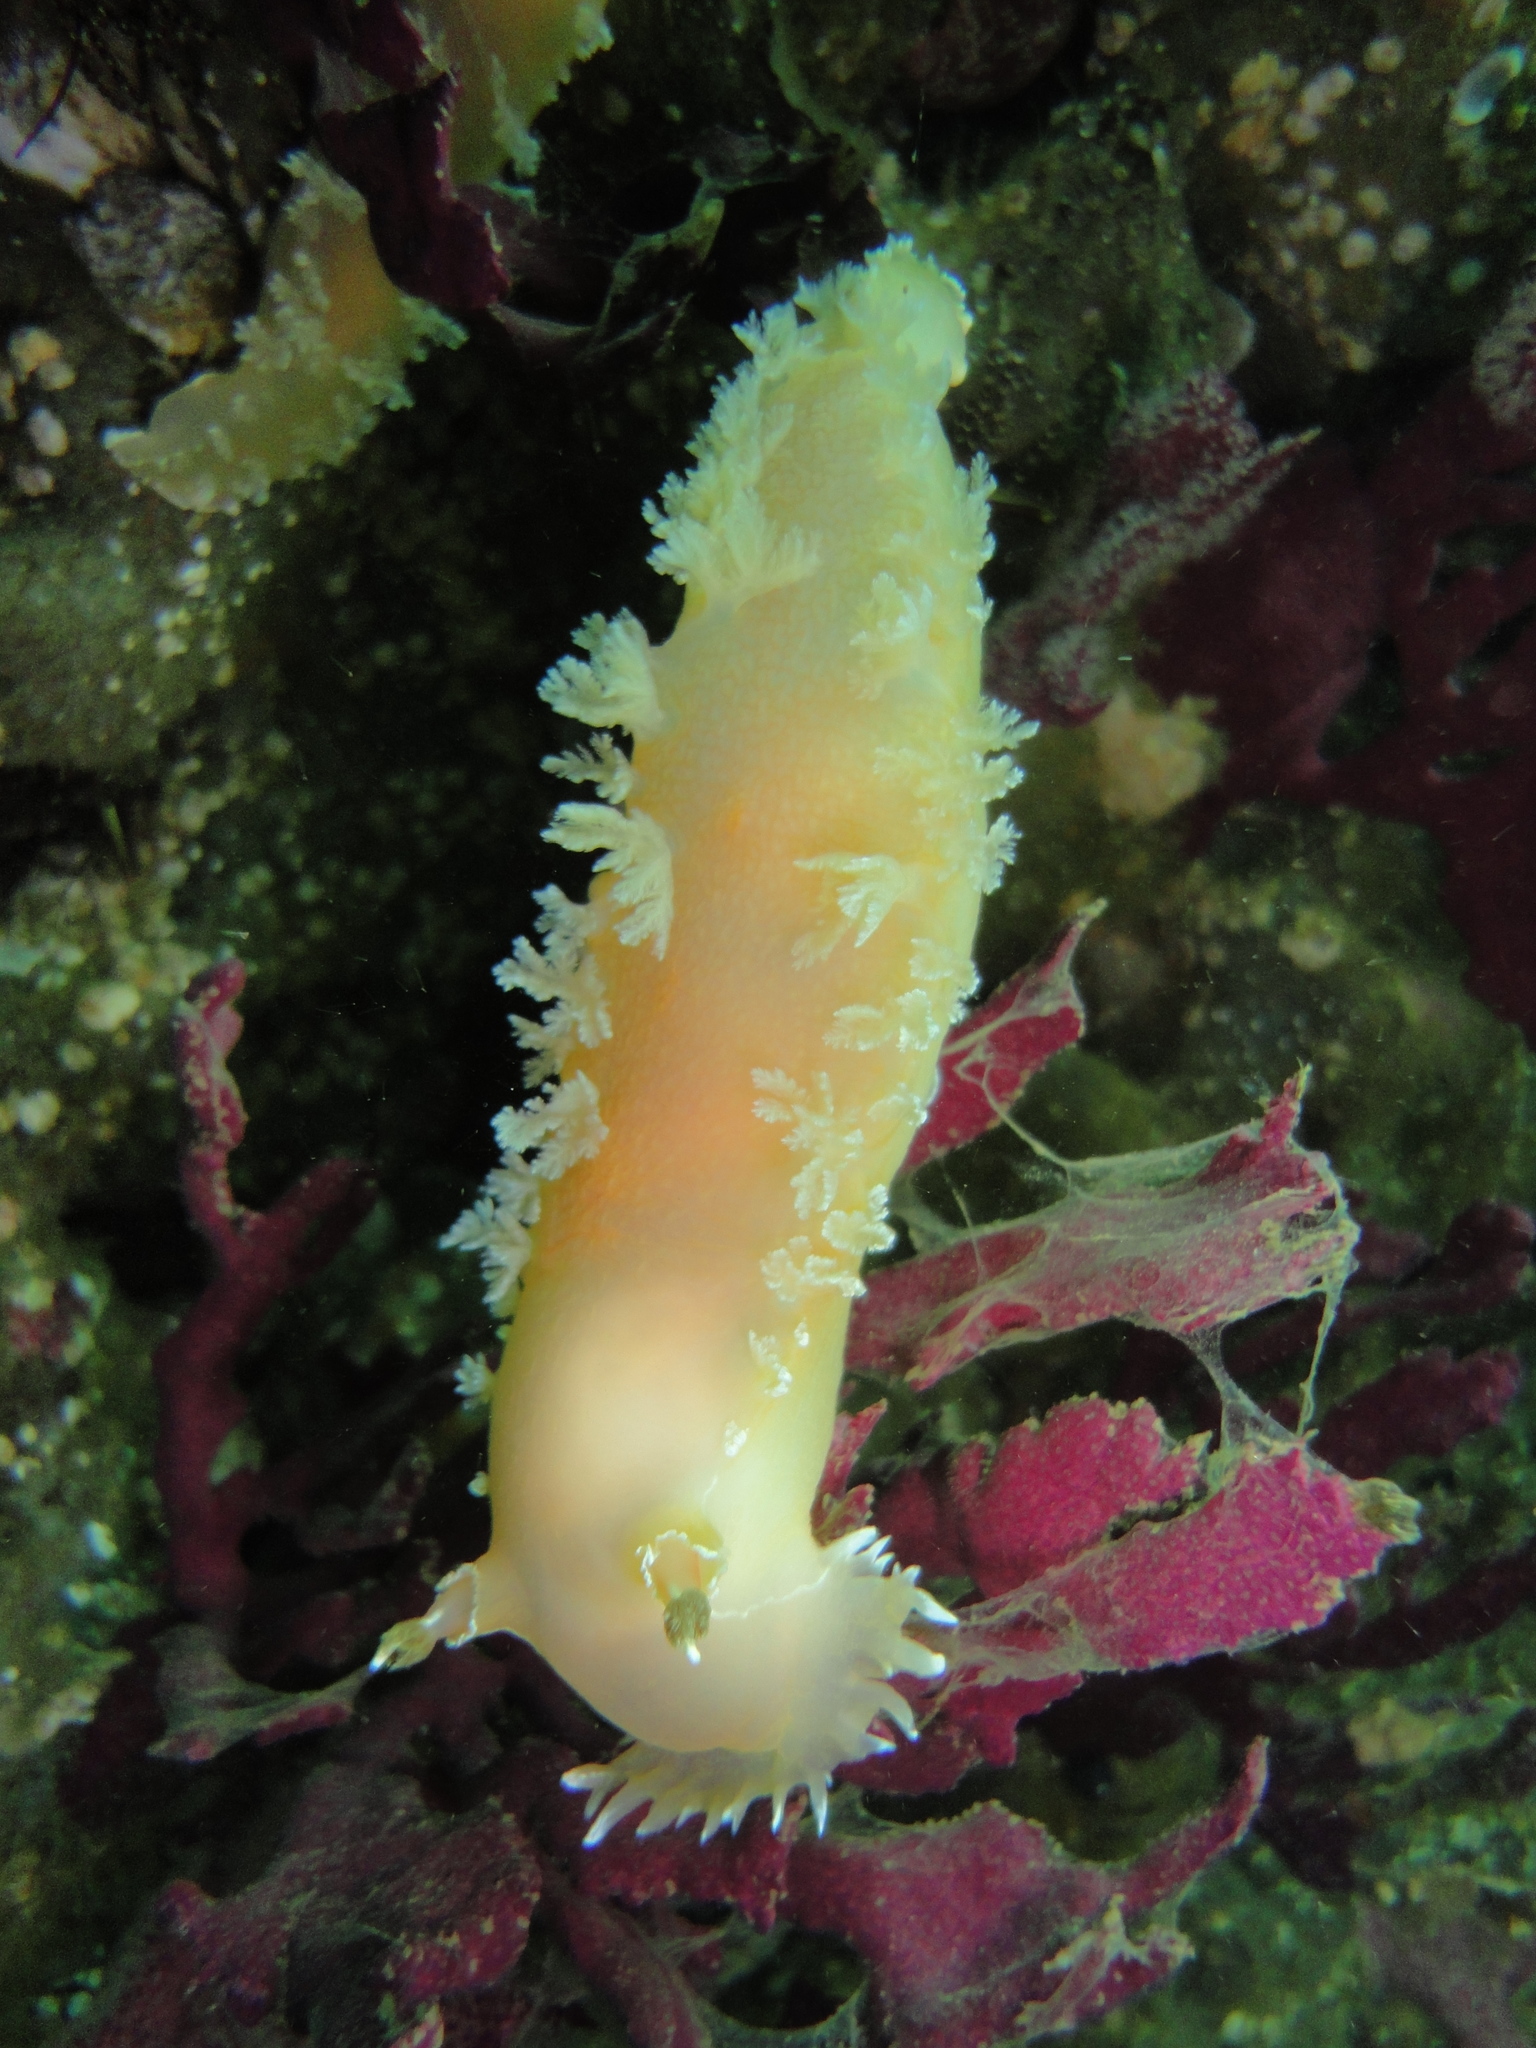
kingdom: Animalia
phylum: Mollusca
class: Gastropoda
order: Nudibranchia
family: Tritoniidae
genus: Tritonia
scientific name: Tritonia odhneri
